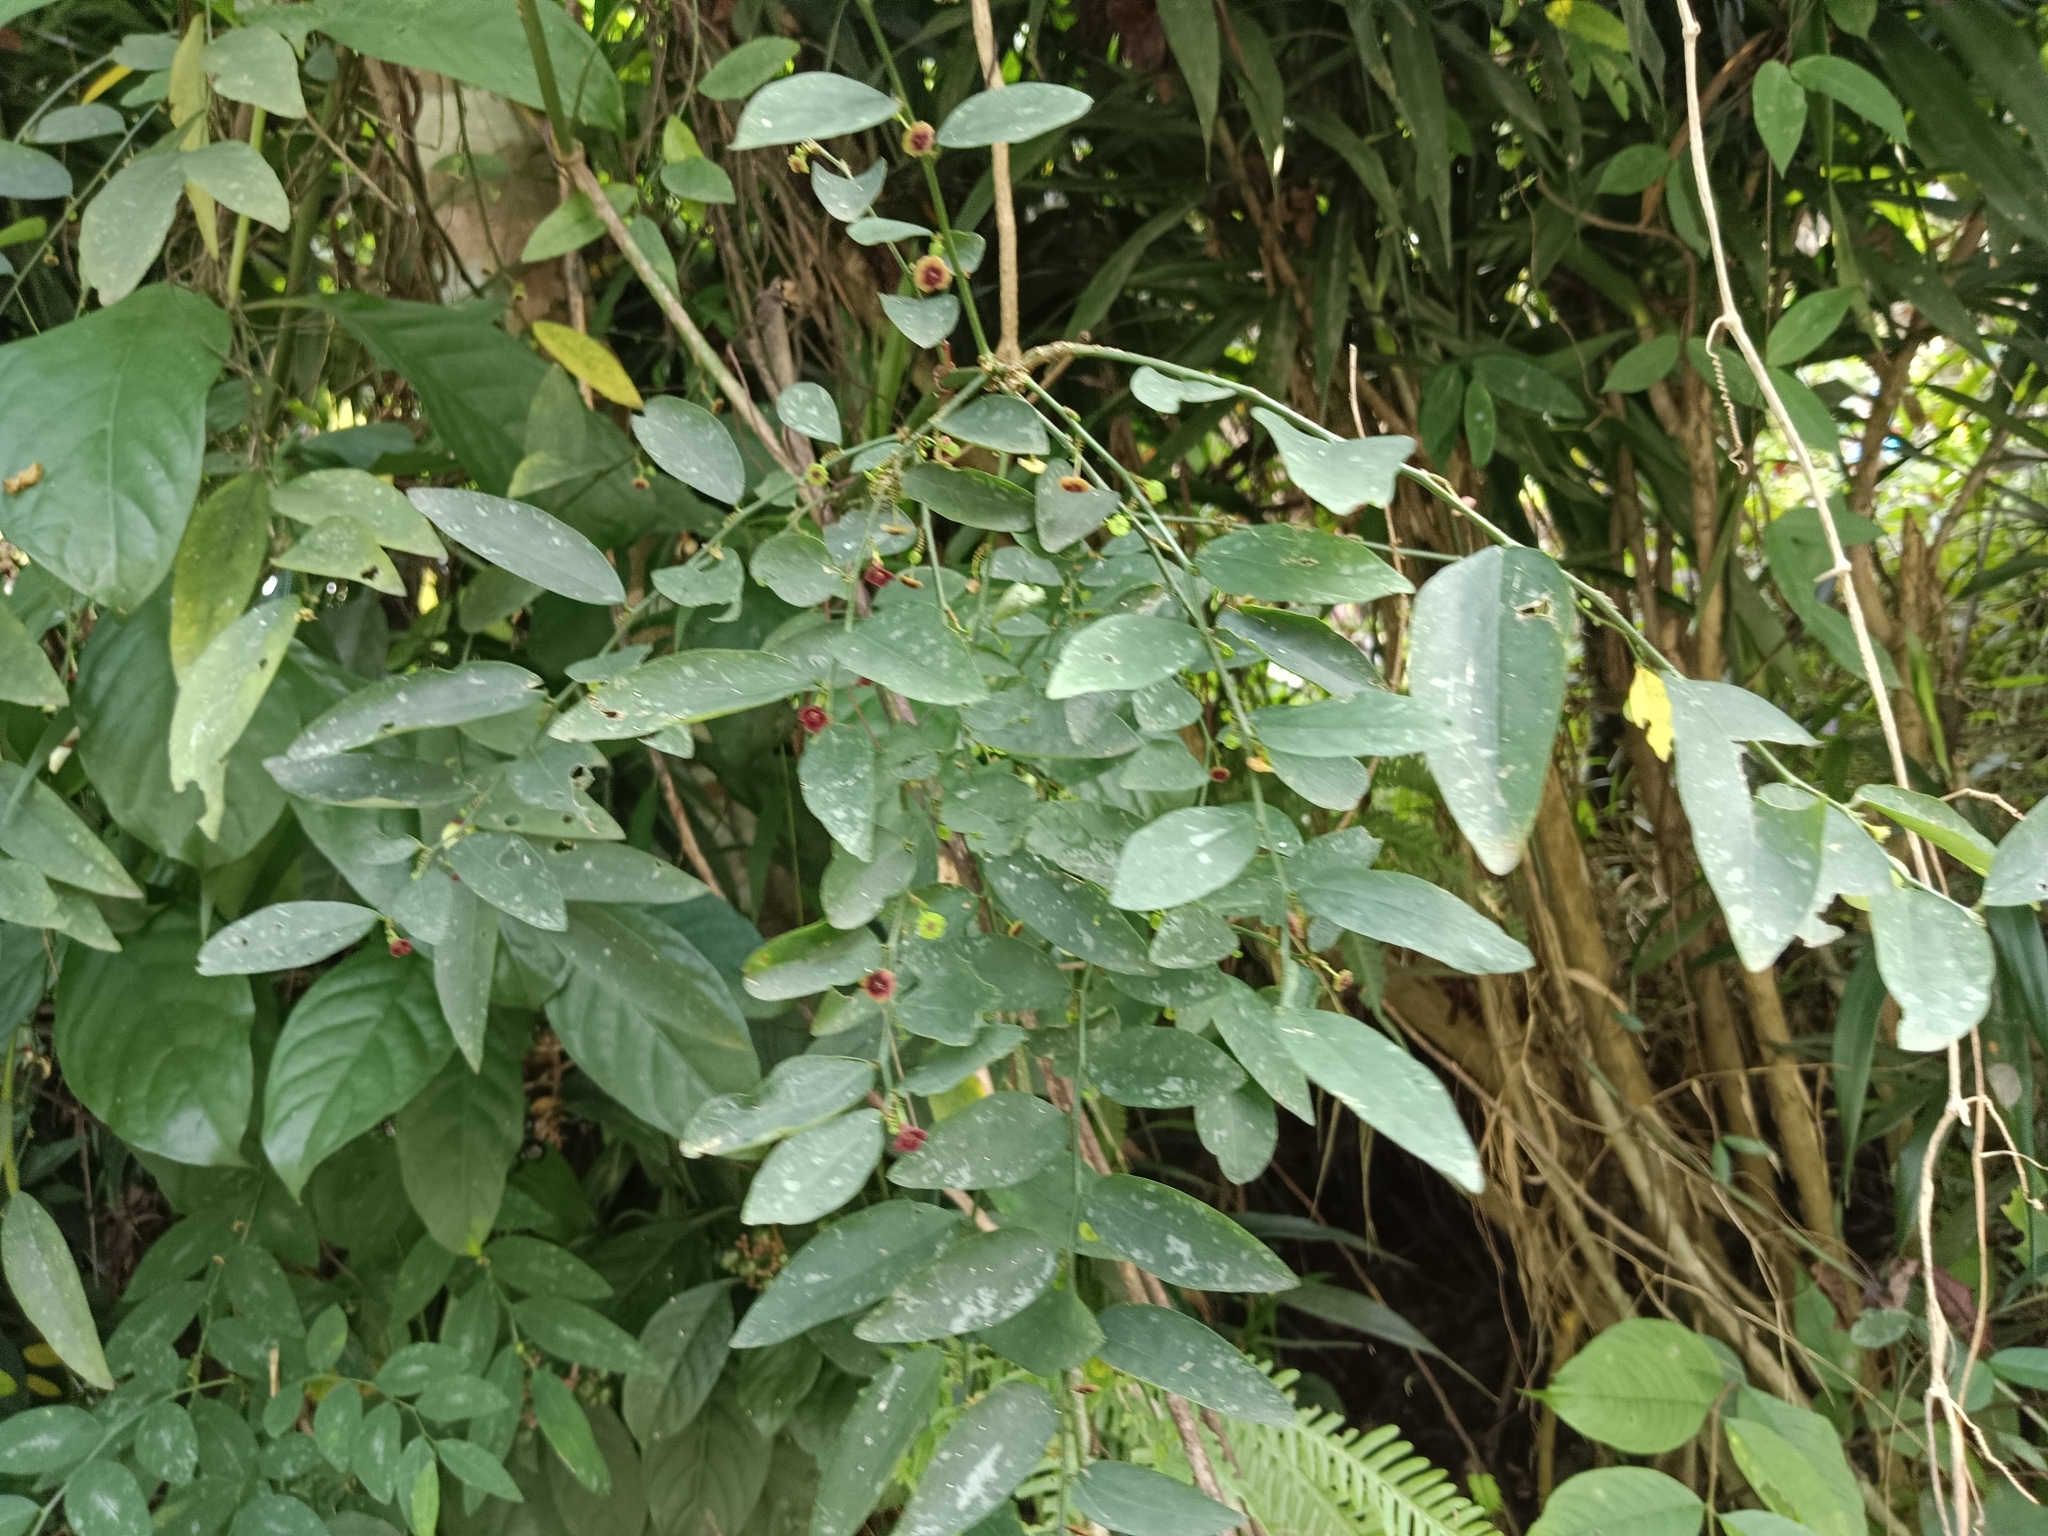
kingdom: Plantae
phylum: Tracheophyta
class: Magnoliopsida
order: Malpighiales
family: Phyllanthaceae
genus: Breynia
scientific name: Breynia androgyna
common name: Star gooseberry
